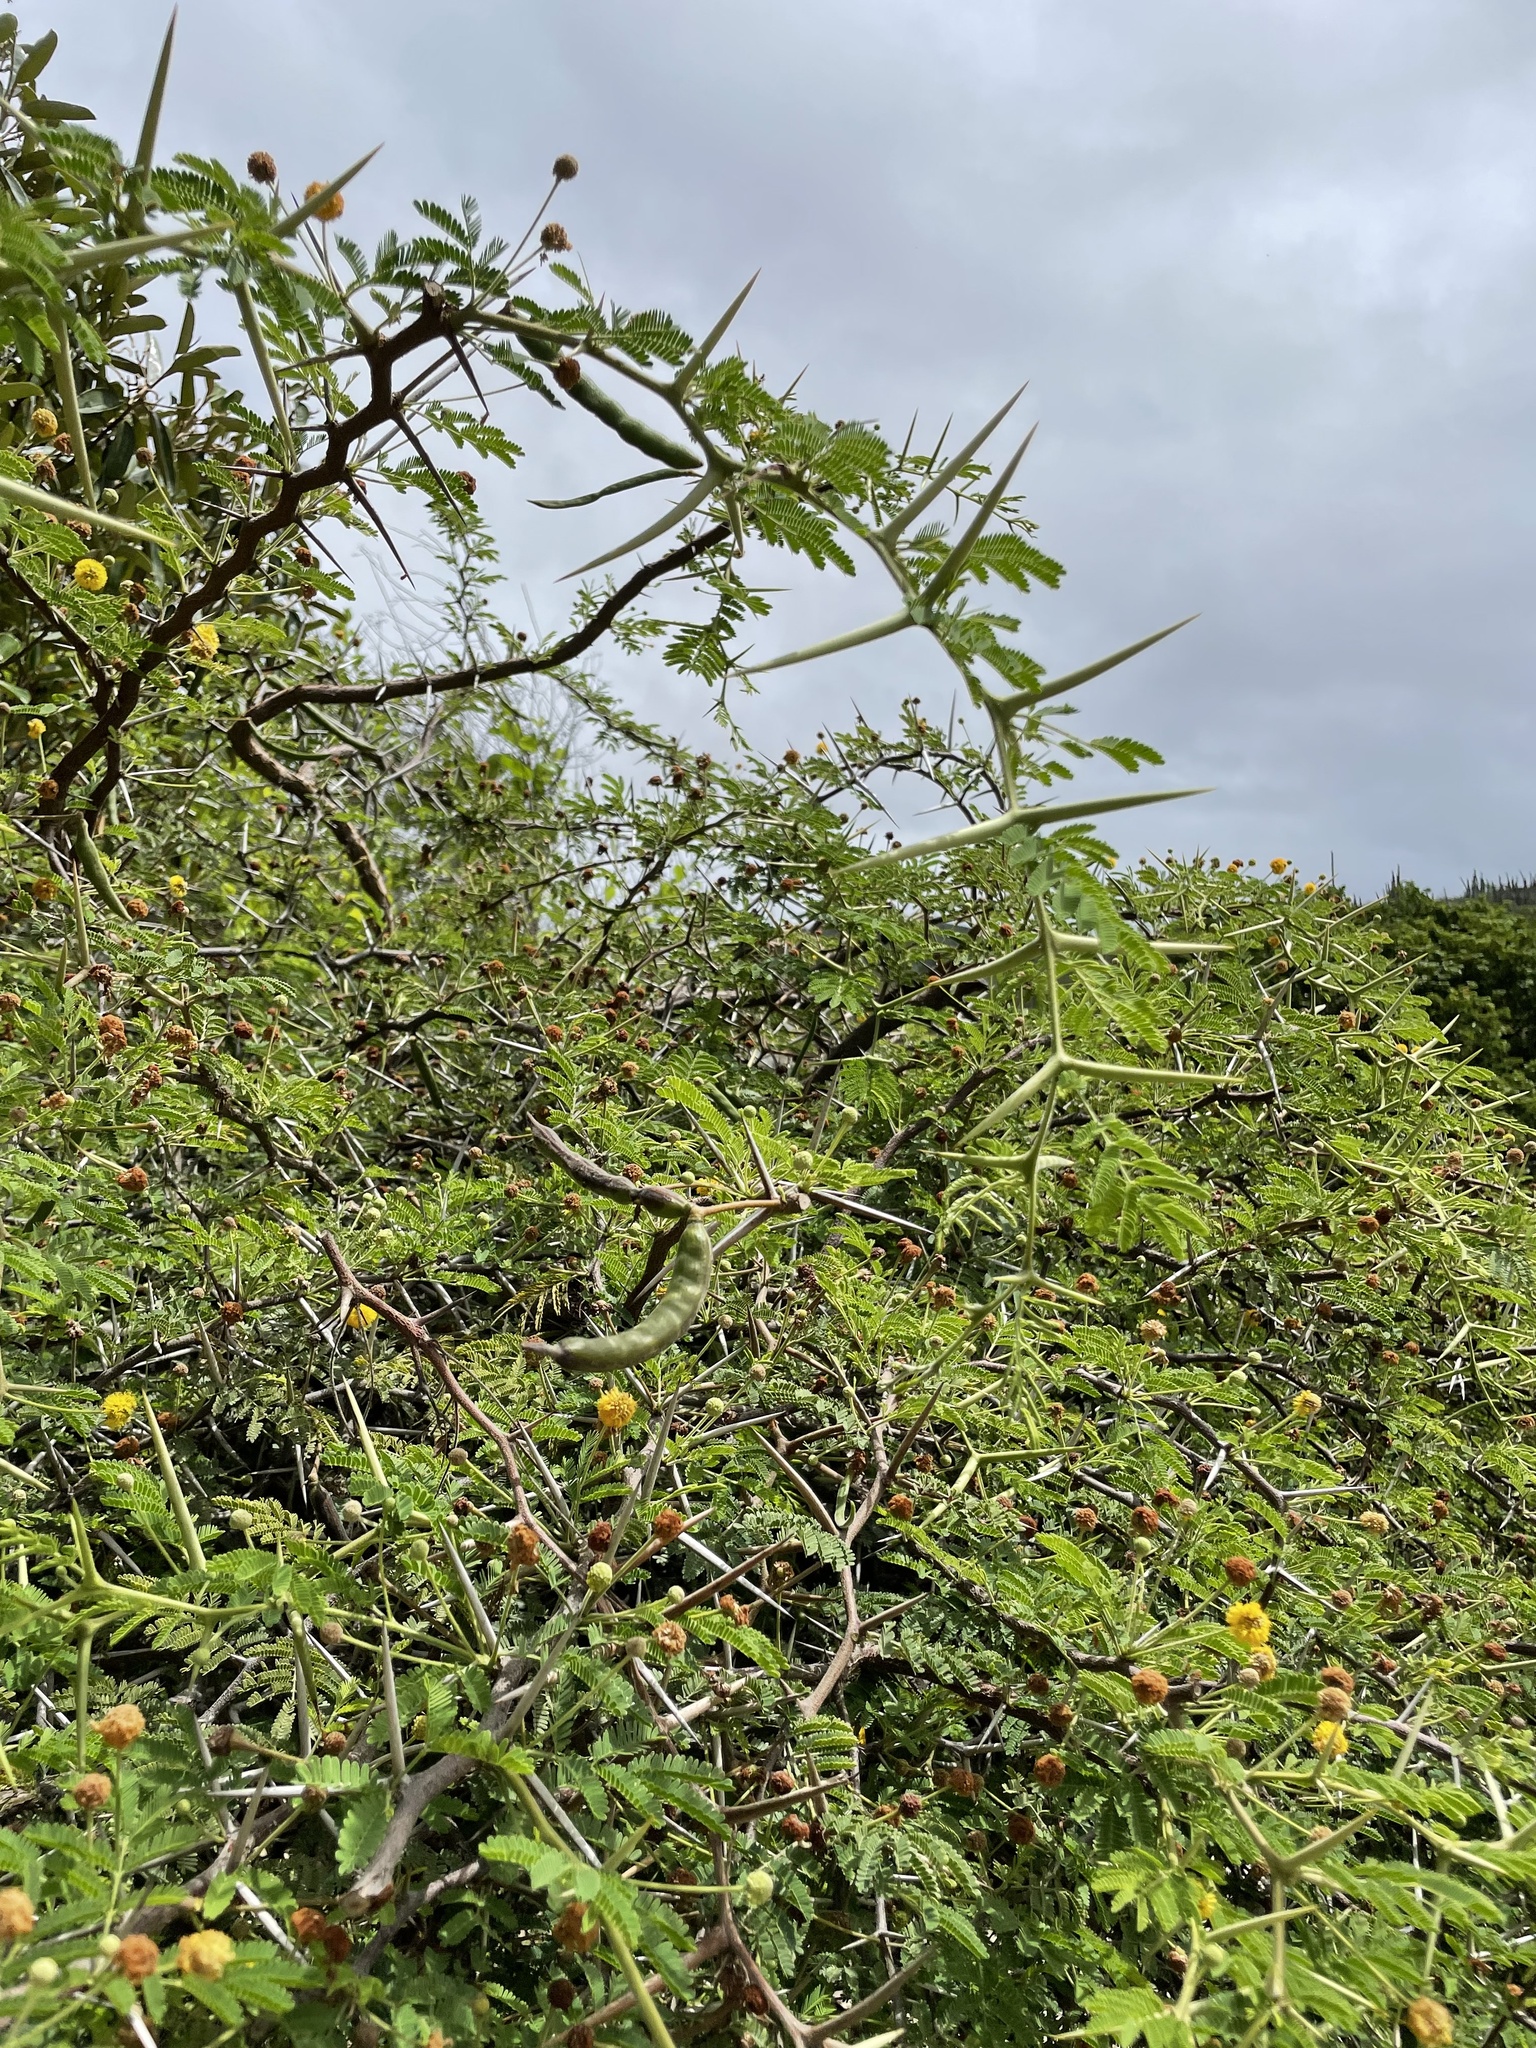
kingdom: Plantae
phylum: Tracheophyta
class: Magnoliopsida
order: Fabales
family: Fabaceae
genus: Vachellia
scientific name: Vachellia tortuosa
